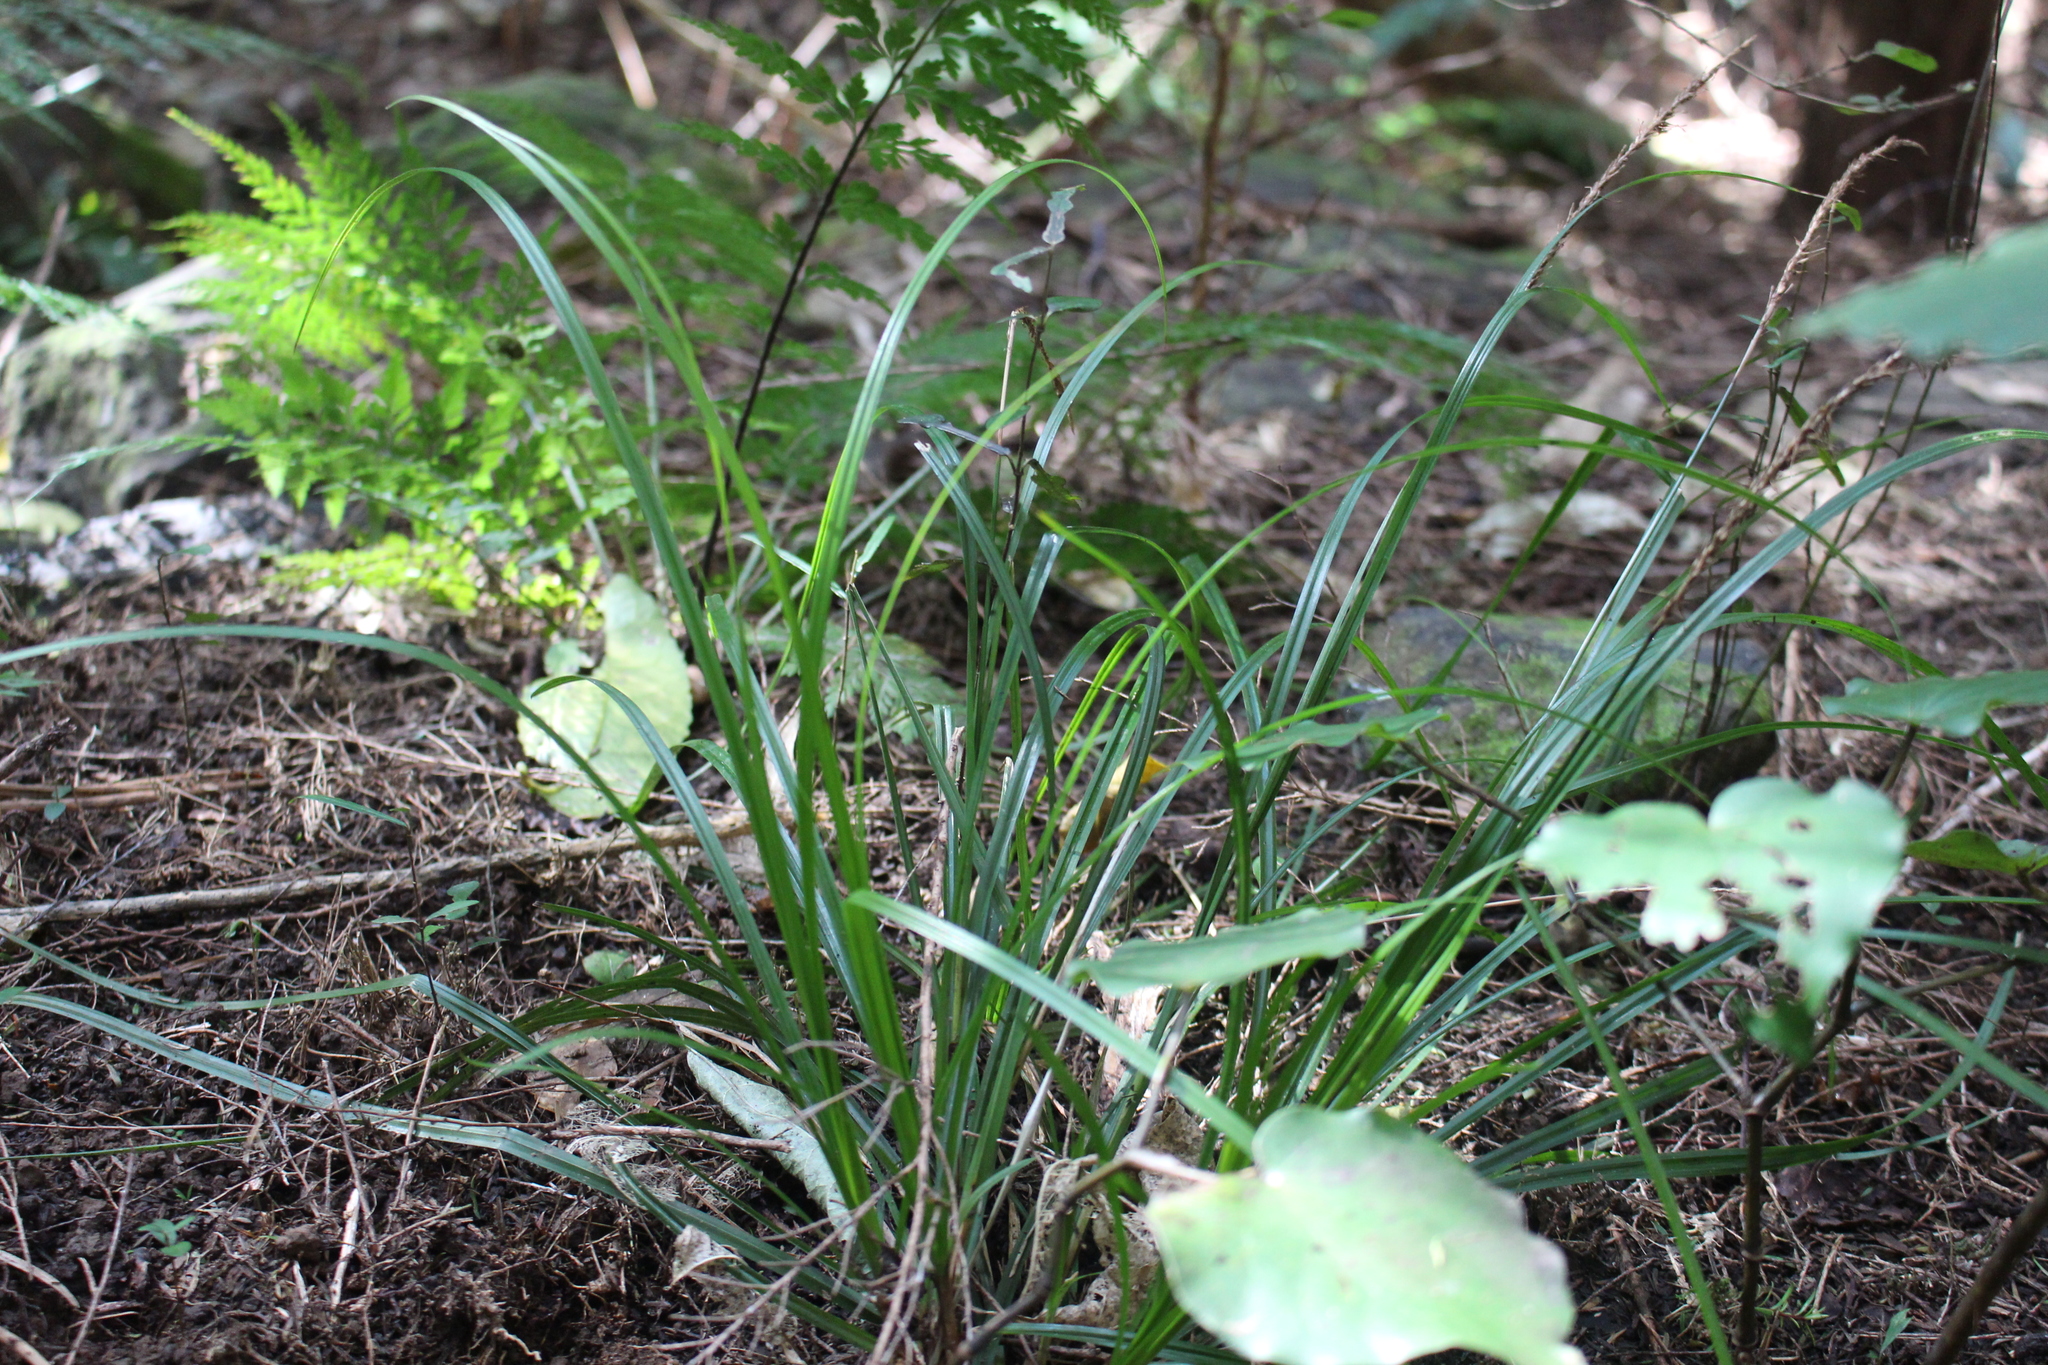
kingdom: Plantae
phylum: Tracheophyta
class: Liliopsida
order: Poales
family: Cyperaceae
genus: Carex
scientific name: Carex uncinata
